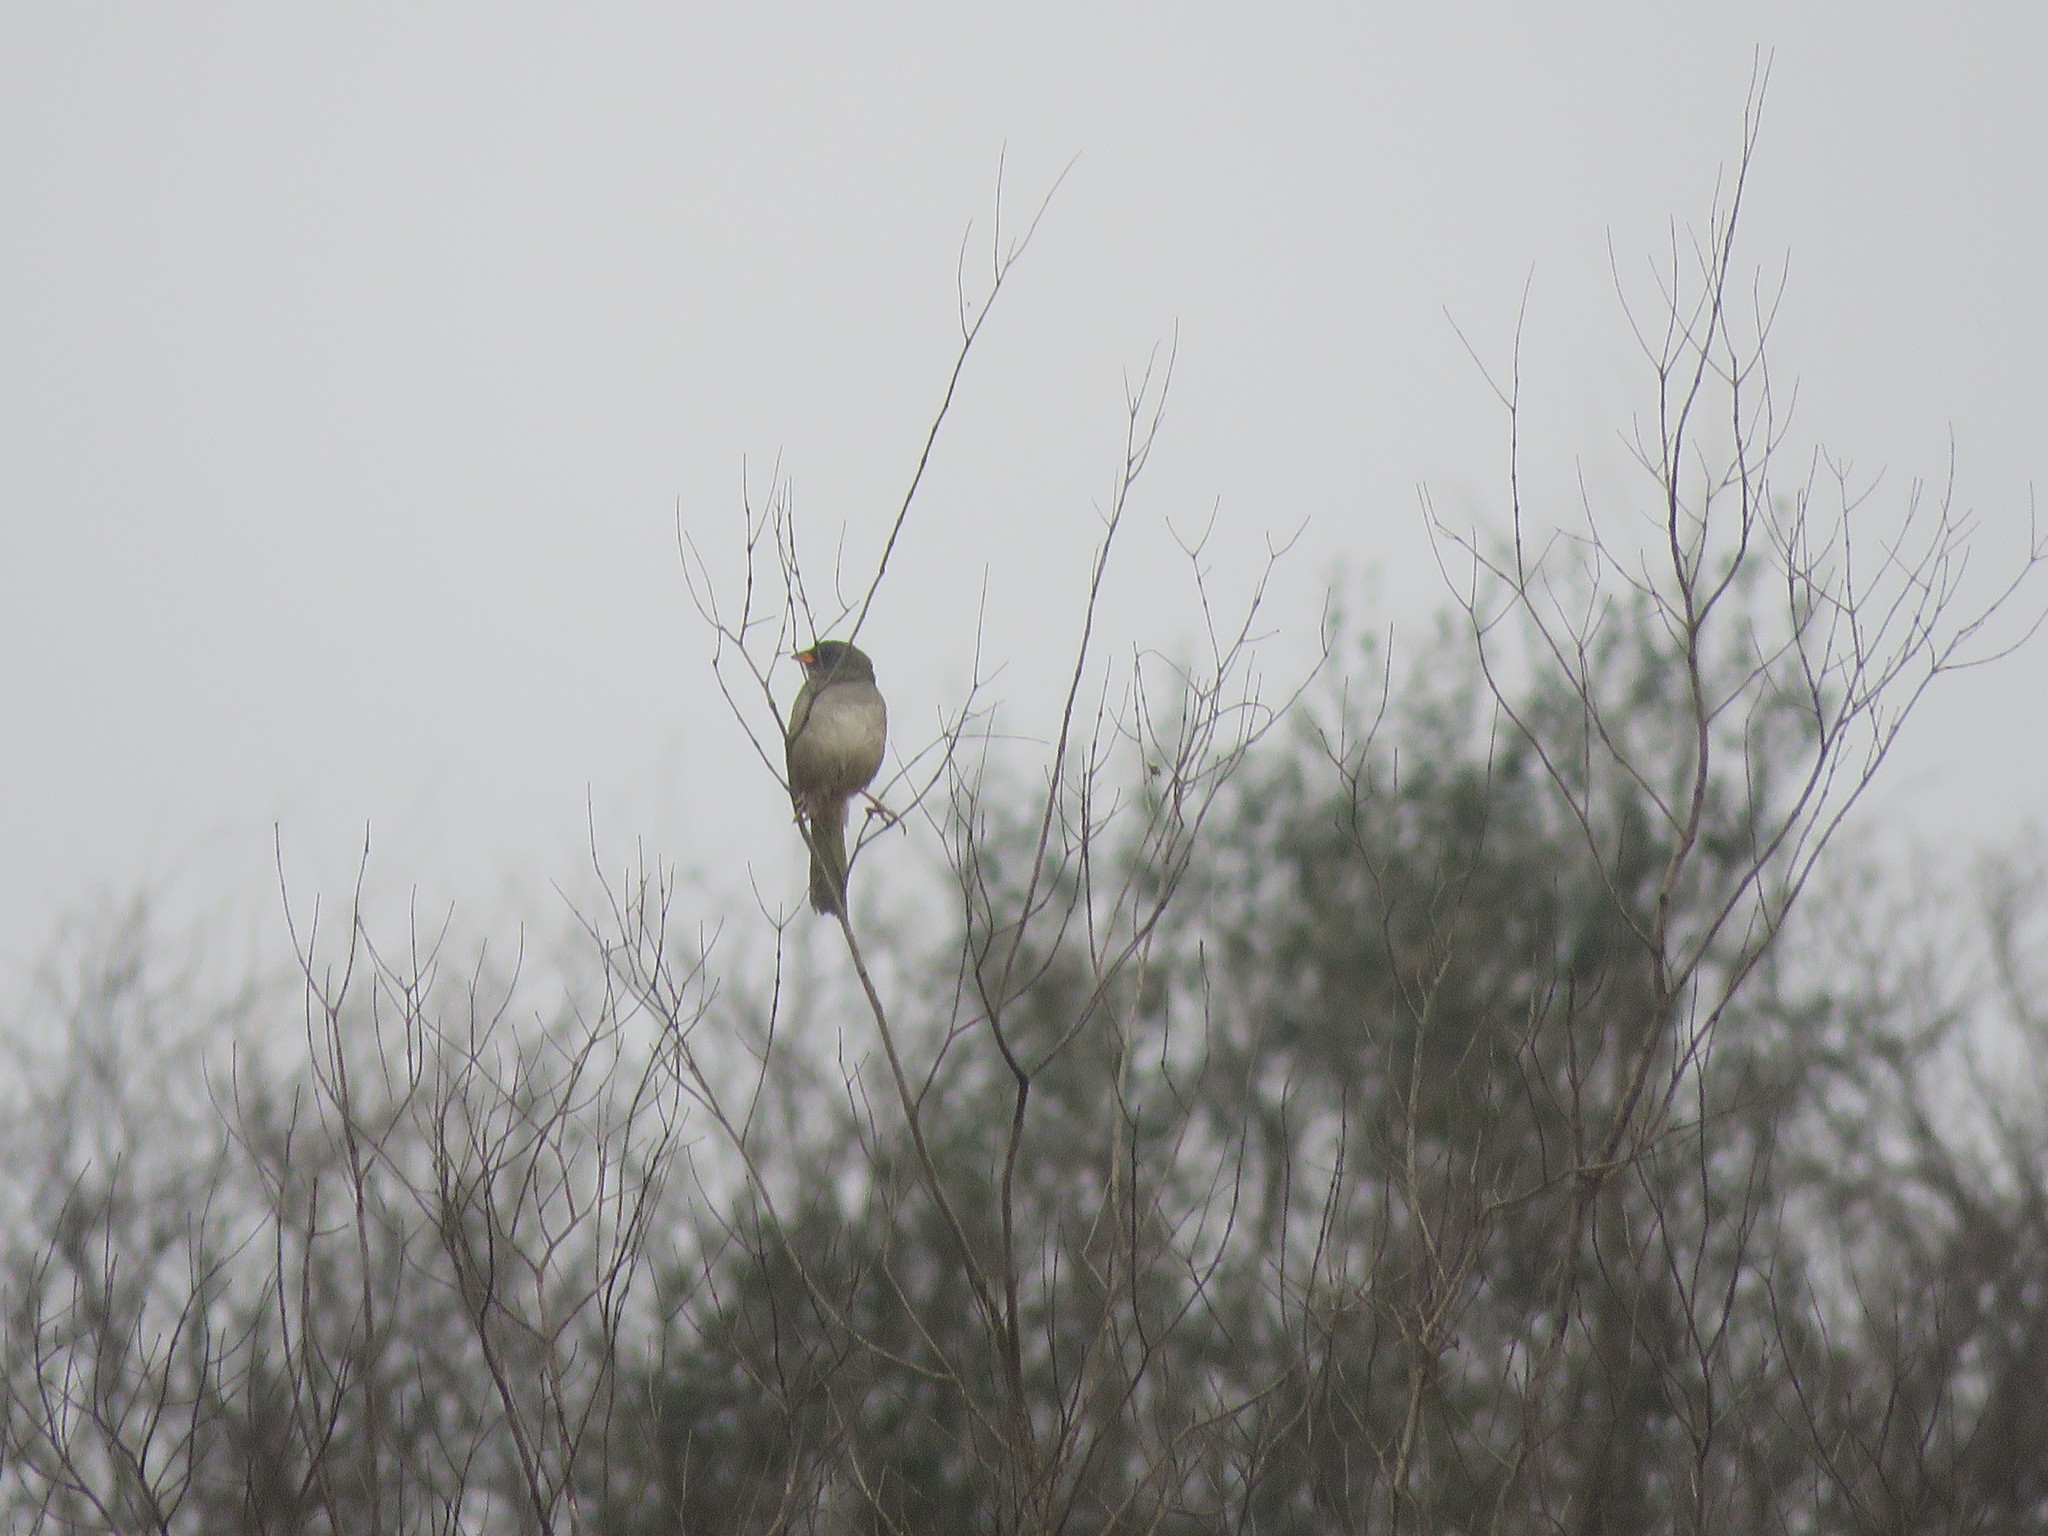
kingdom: Animalia
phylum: Chordata
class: Aves
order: Passeriformes
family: Thraupidae
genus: Embernagra
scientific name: Embernagra platensis
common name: Pampa finch
